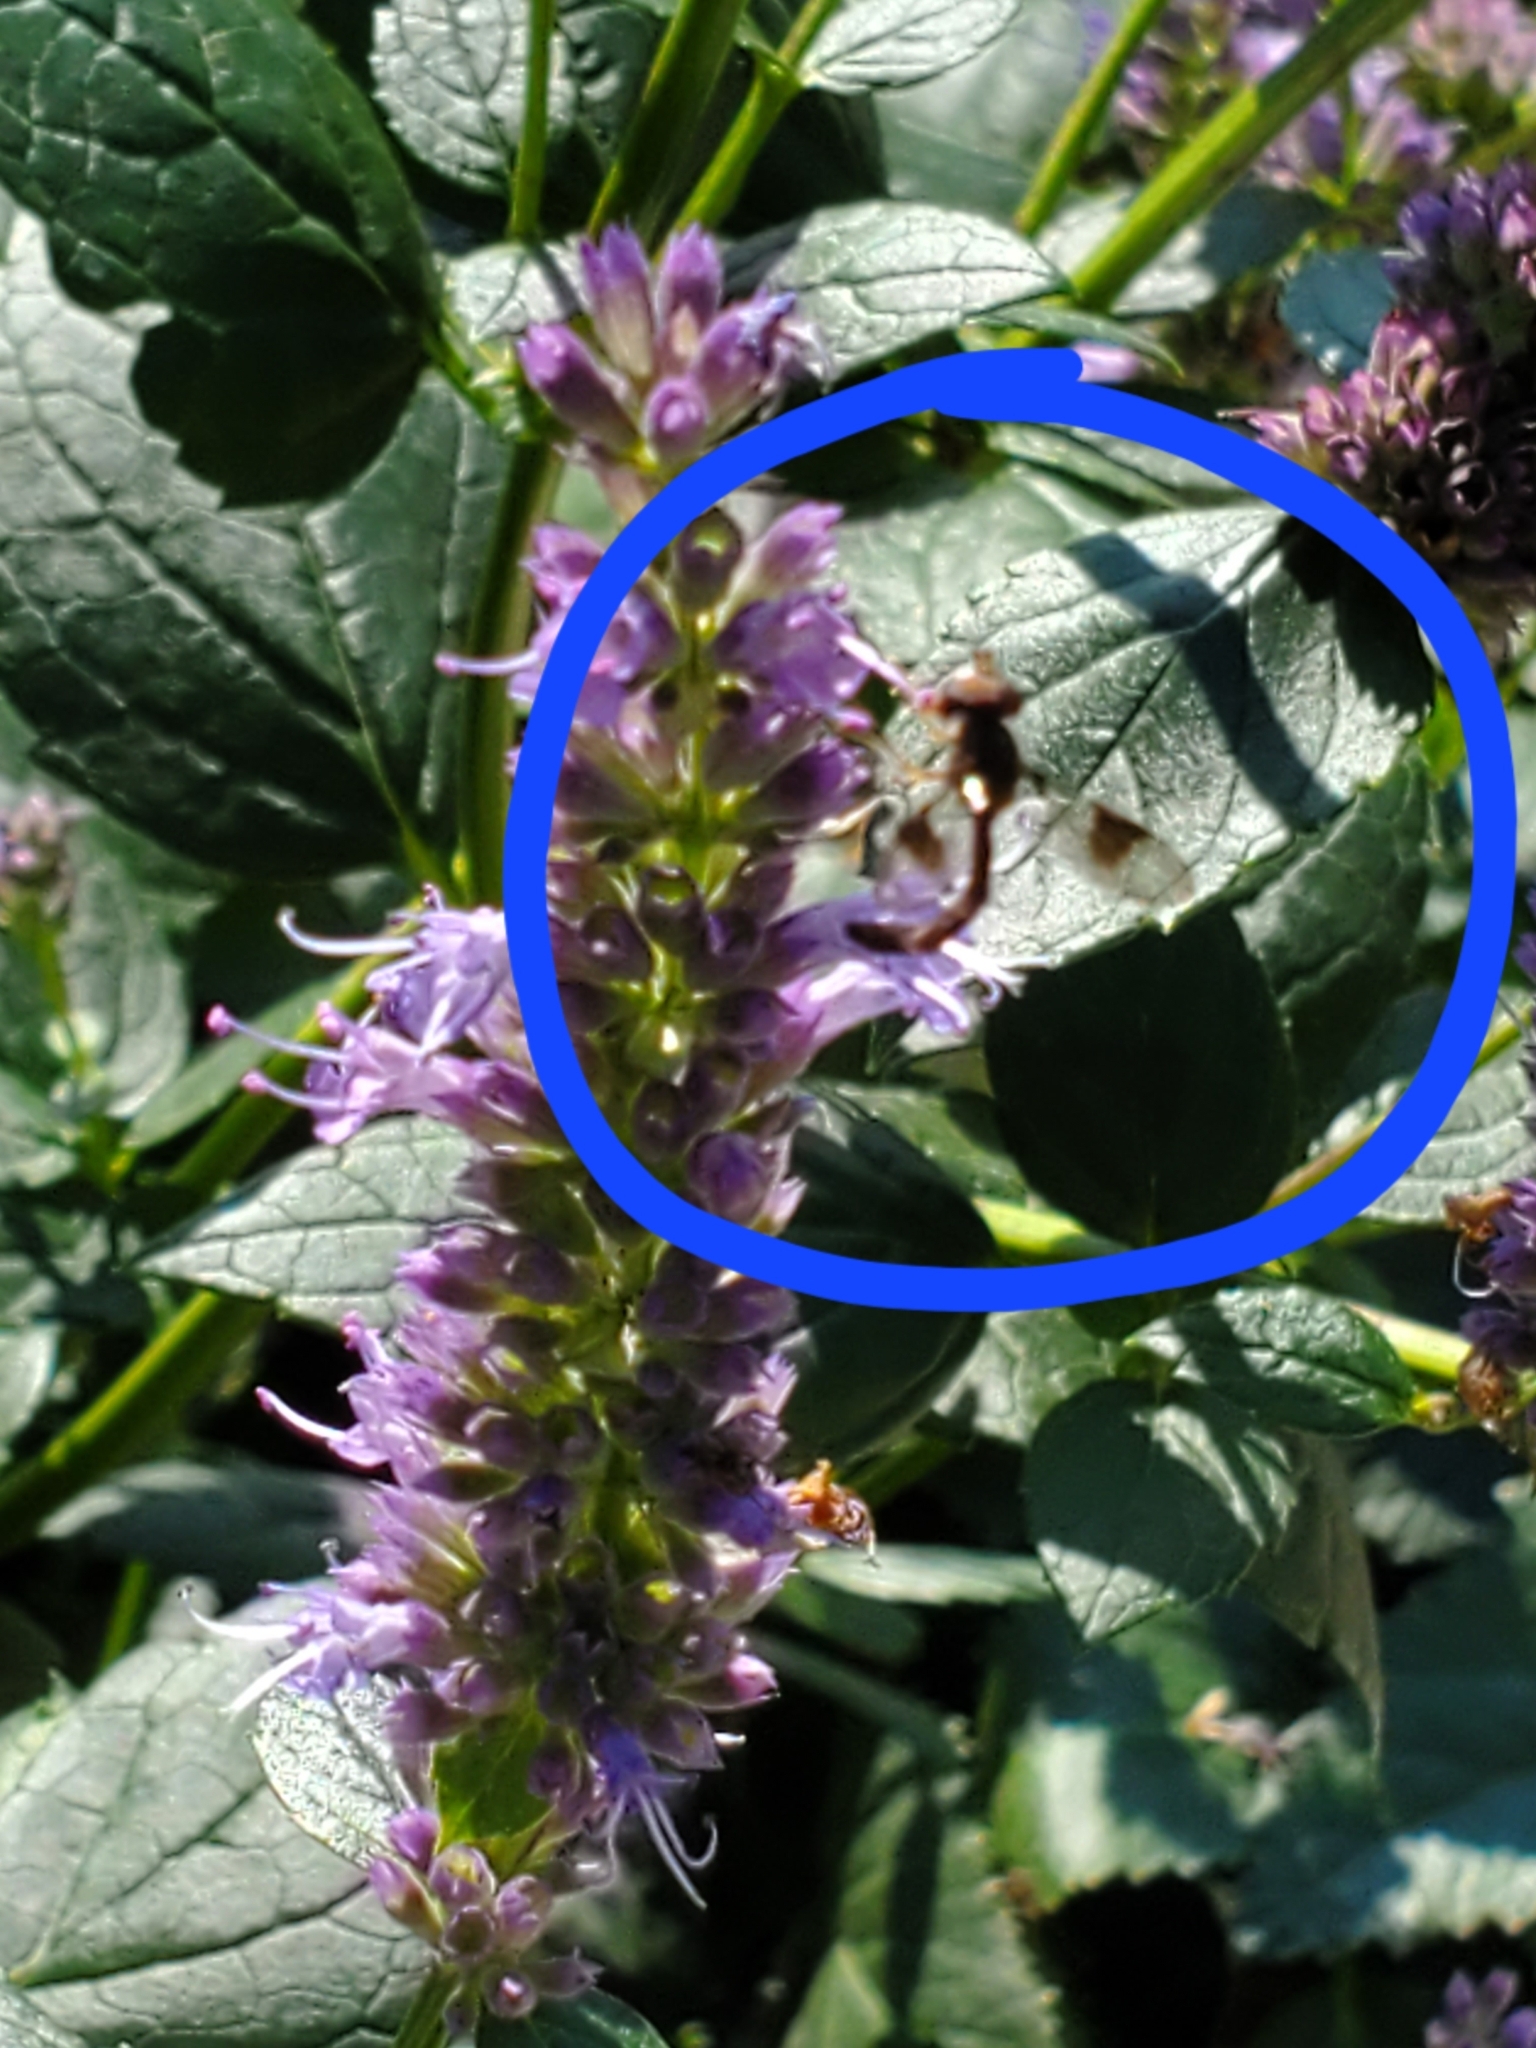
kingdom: Animalia
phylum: Arthropoda
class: Insecta
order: Diptera
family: Syrphidae
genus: Hypocritanus
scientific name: Hypocritanus fascipennis
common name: Eastern band-winged hover fly
